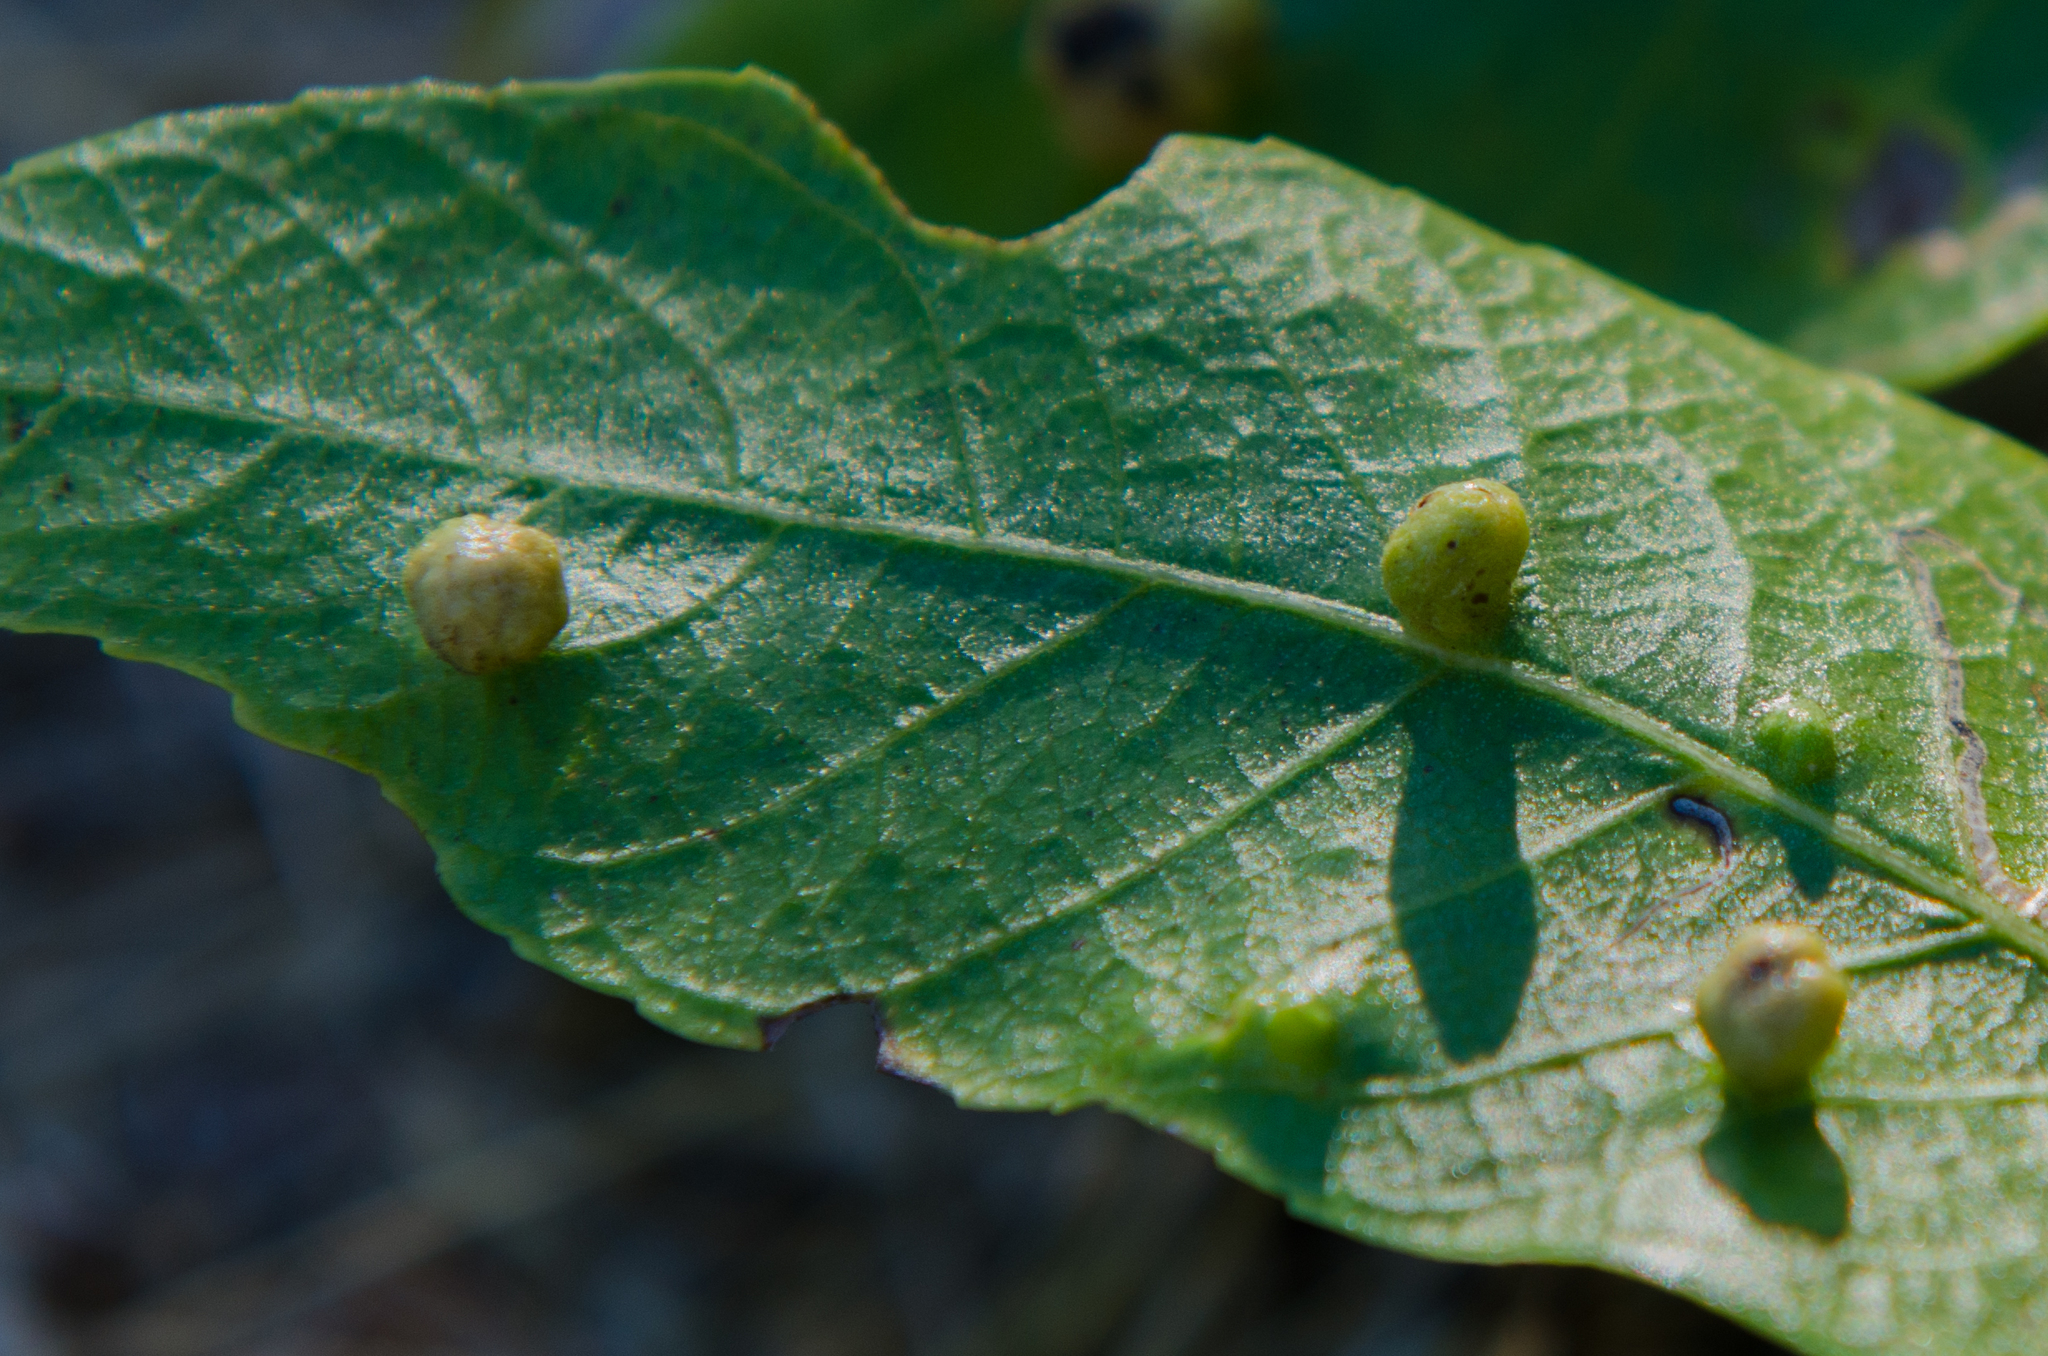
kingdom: Animalia
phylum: Arthropoda
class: Arachnida
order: Trombidiformes
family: Eriophyidae
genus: Aceria
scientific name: Aceria brachytarsus
